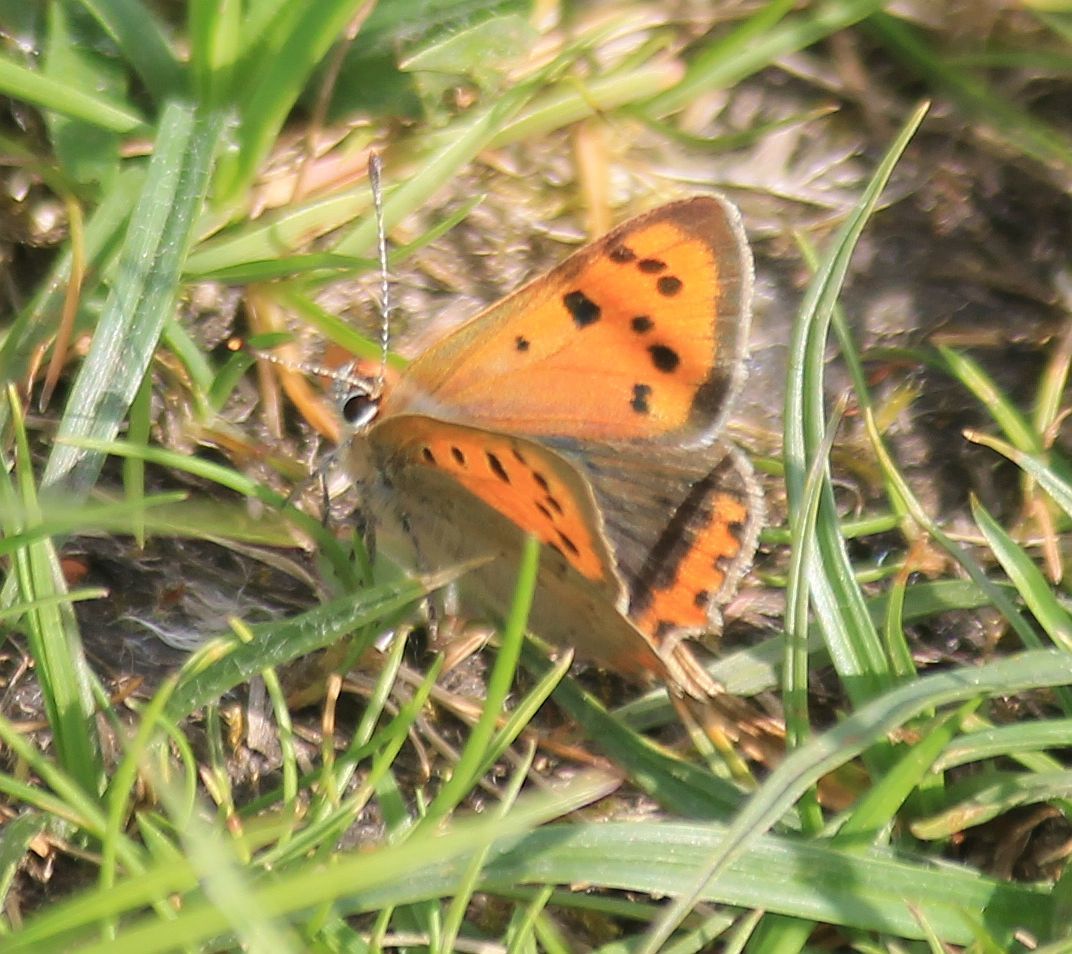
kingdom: Animalia
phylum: Arthropoda
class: Insecta
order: Lepidoptera
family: Lycaenidae
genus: Lycaena
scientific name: Lycaena phlaeas
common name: Small copper
